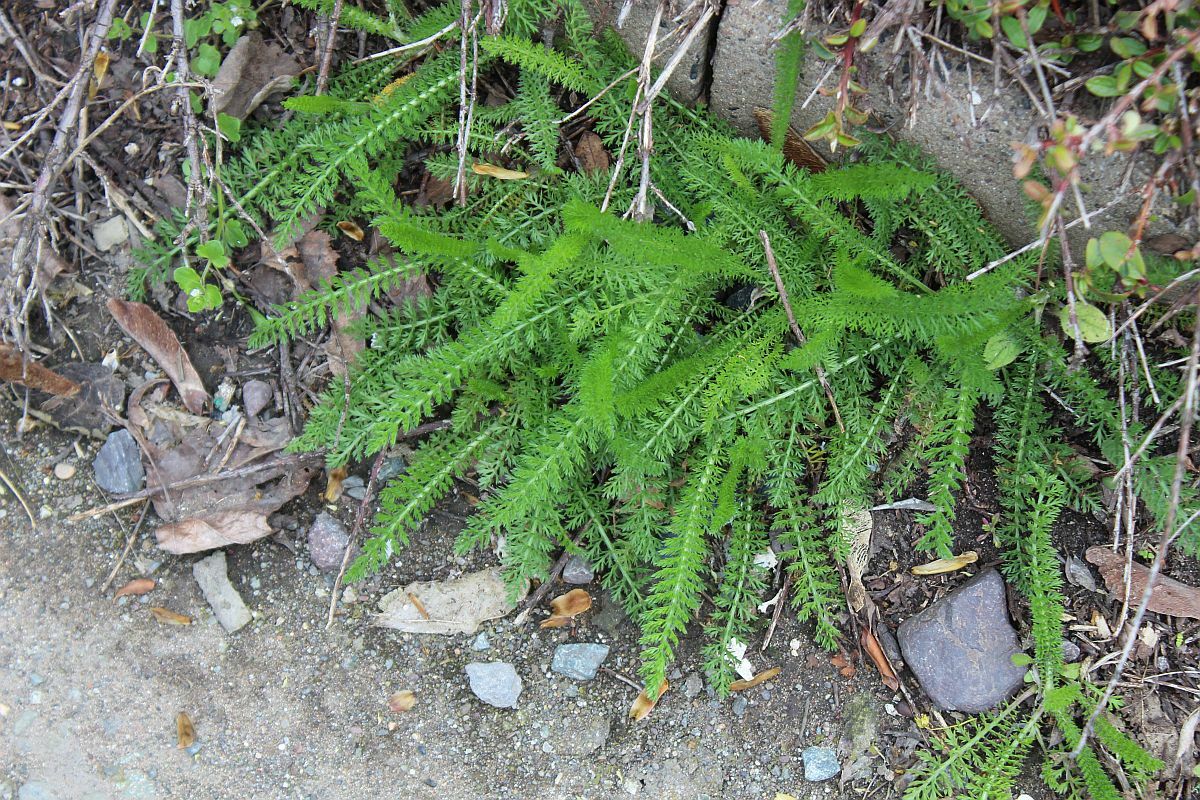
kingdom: Plantae
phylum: Tracheophyta
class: Magnoliopsida
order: Asterales
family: Asteraceae
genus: Achillea
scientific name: Achillea millefolium
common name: Yarrow
